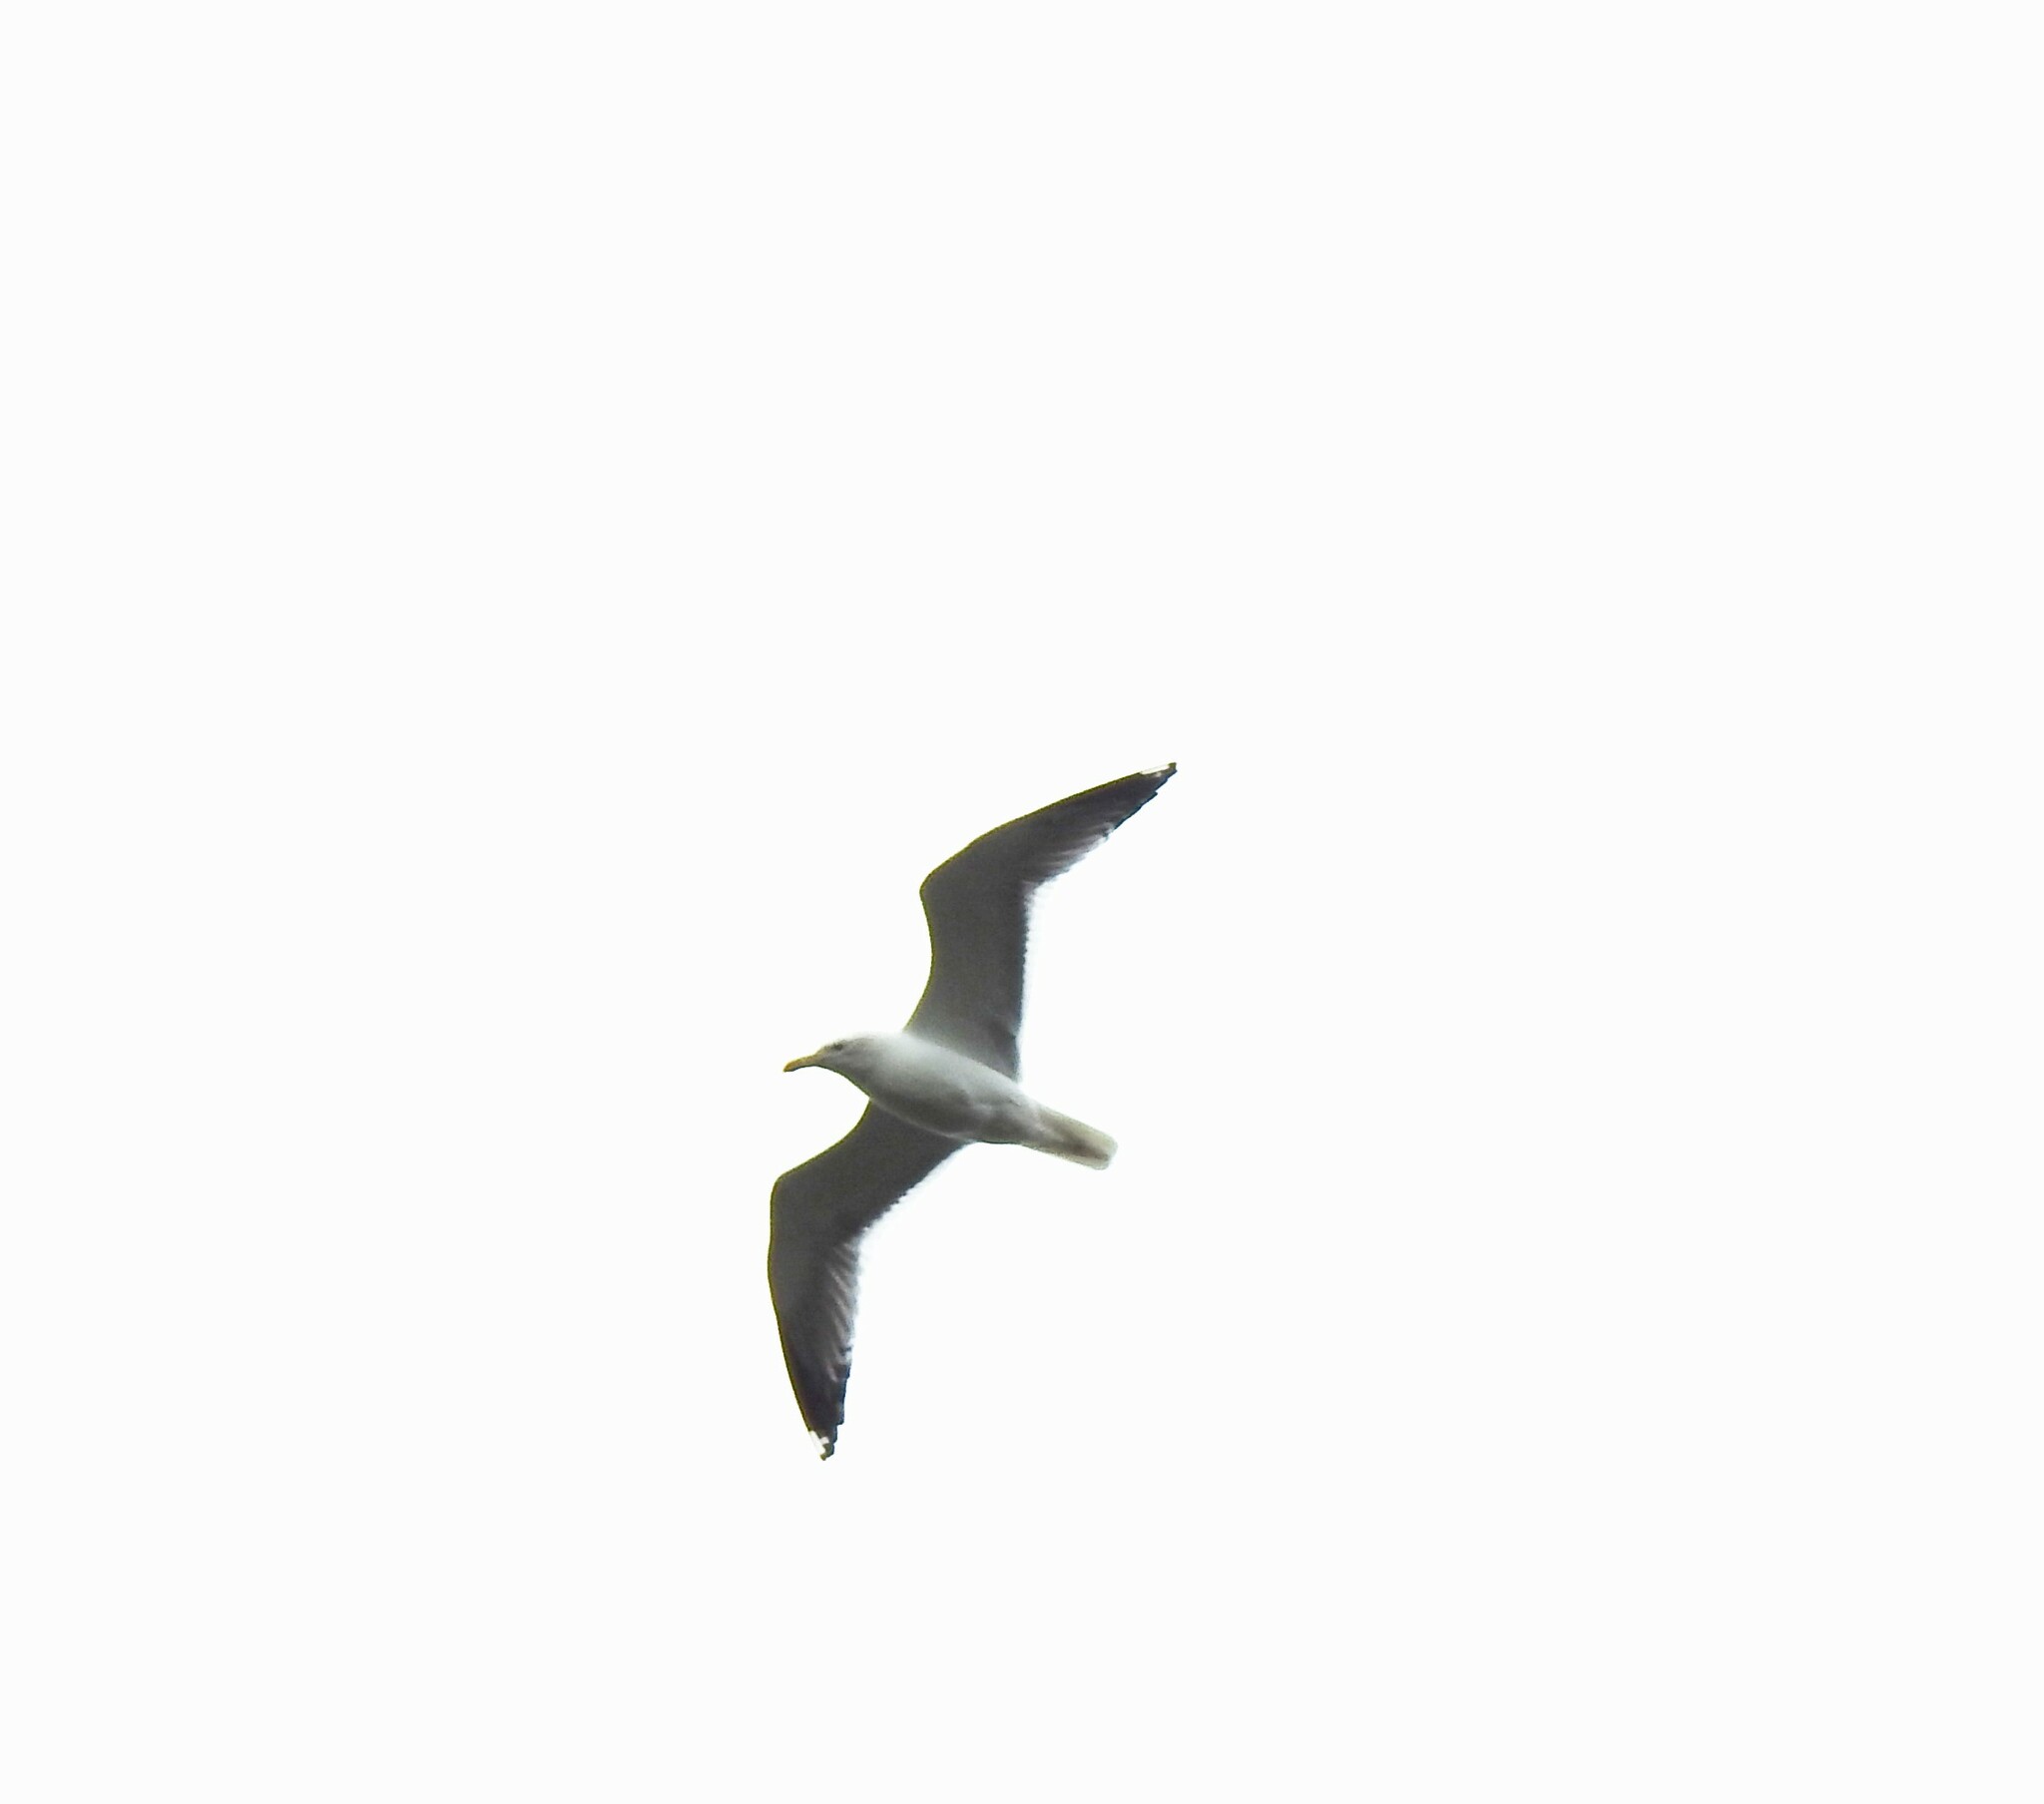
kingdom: Animalia
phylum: Chordata
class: Aves
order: Charadriiformes
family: Laridae
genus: Larus
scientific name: Larus fuscus
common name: Lesser black-backed gull
